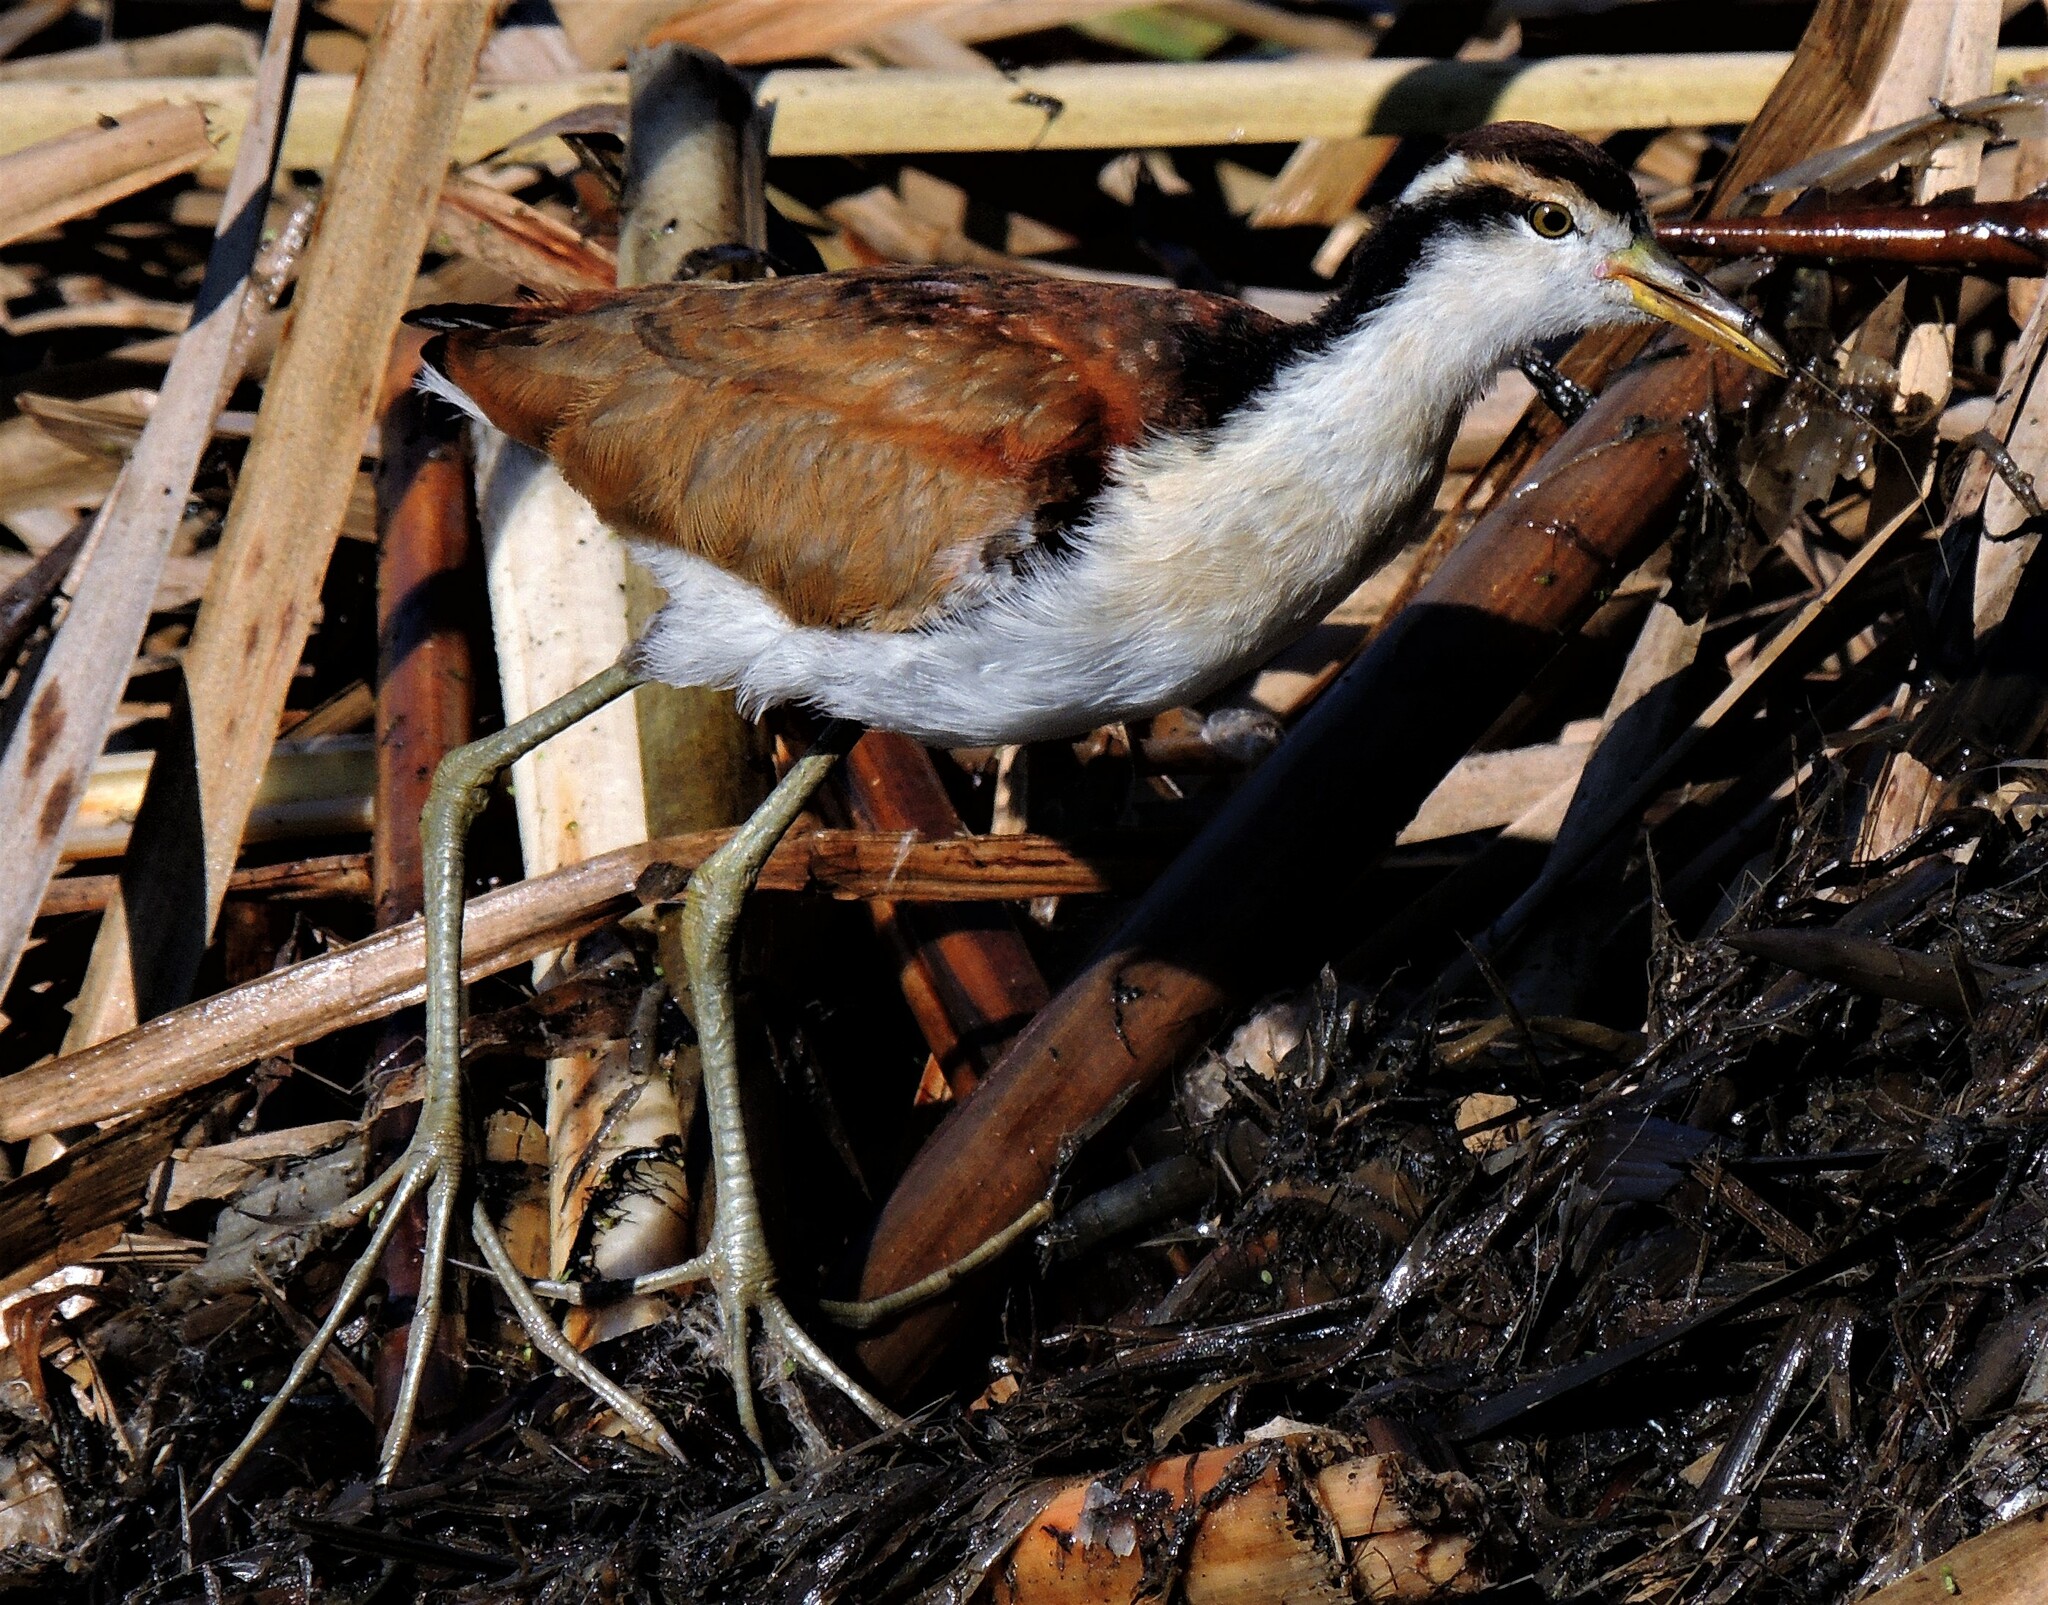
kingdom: Animalia
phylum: Chordata
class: Aves
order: Charadriiformes
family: Jacanidae
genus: Jacana
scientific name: Jacana jacana
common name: Wattled jacana
